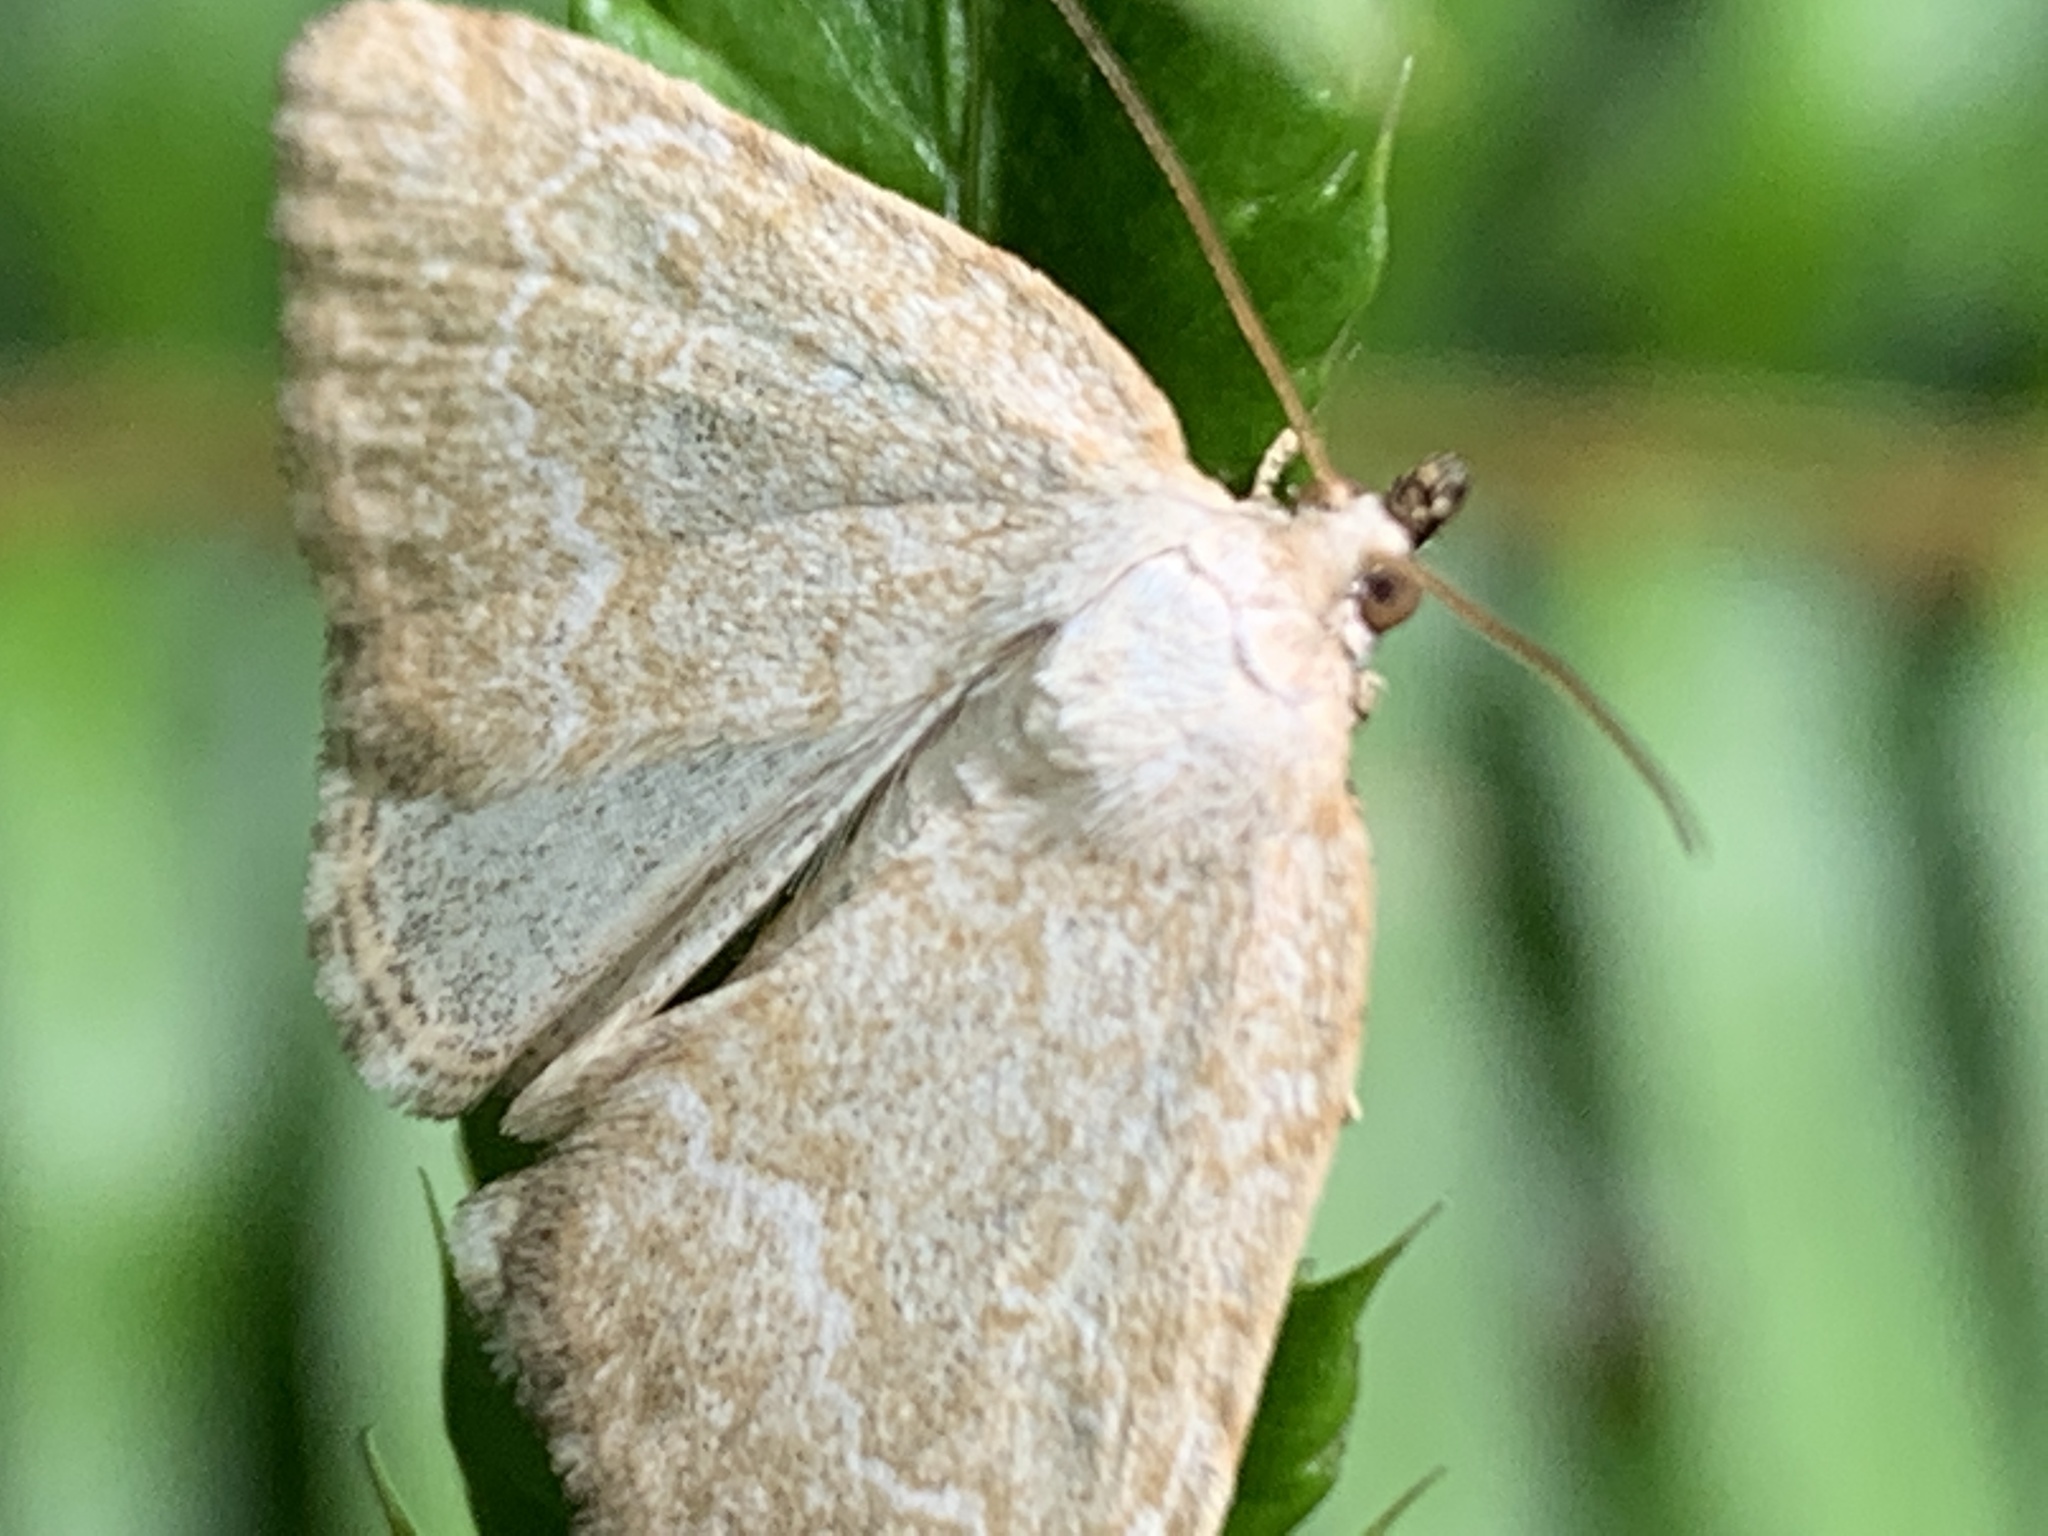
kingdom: Animalia
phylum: Arthropoda
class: Insecta
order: Lepidoptera
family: Noctuidae
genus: Protodeltote
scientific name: Protodeltote albidula
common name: Pale glyph
